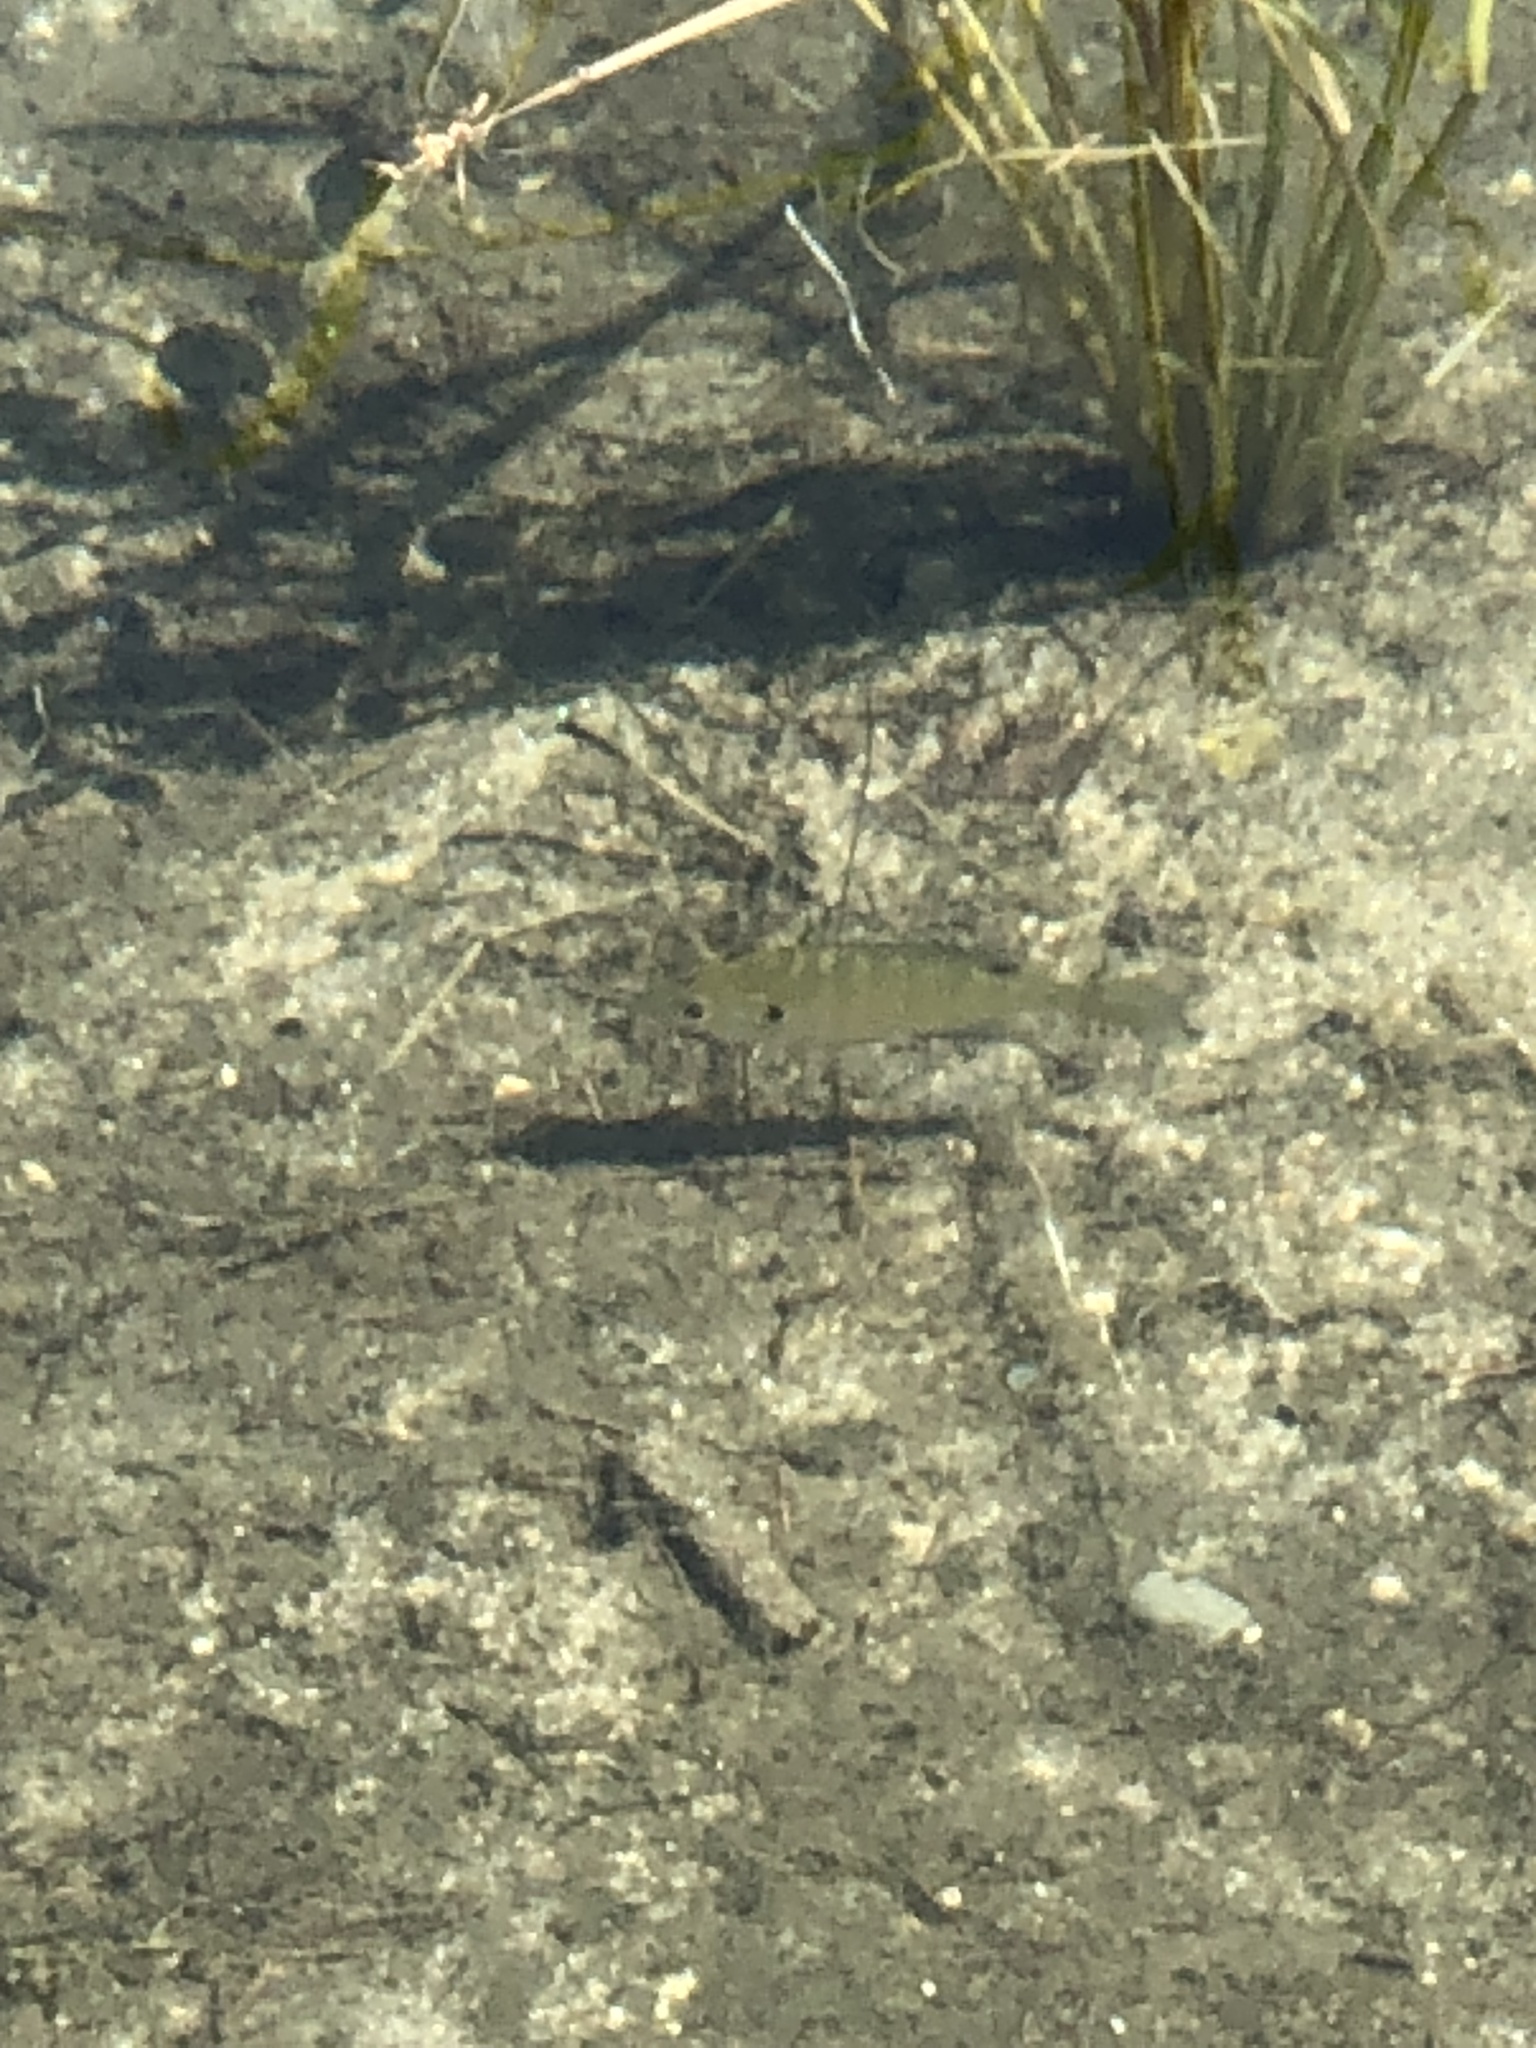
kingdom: Animalia
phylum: Chordata
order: Perciformes
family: Centrarchidae
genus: Lepomis
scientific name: Lepomis macrochirus
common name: Bluegill
